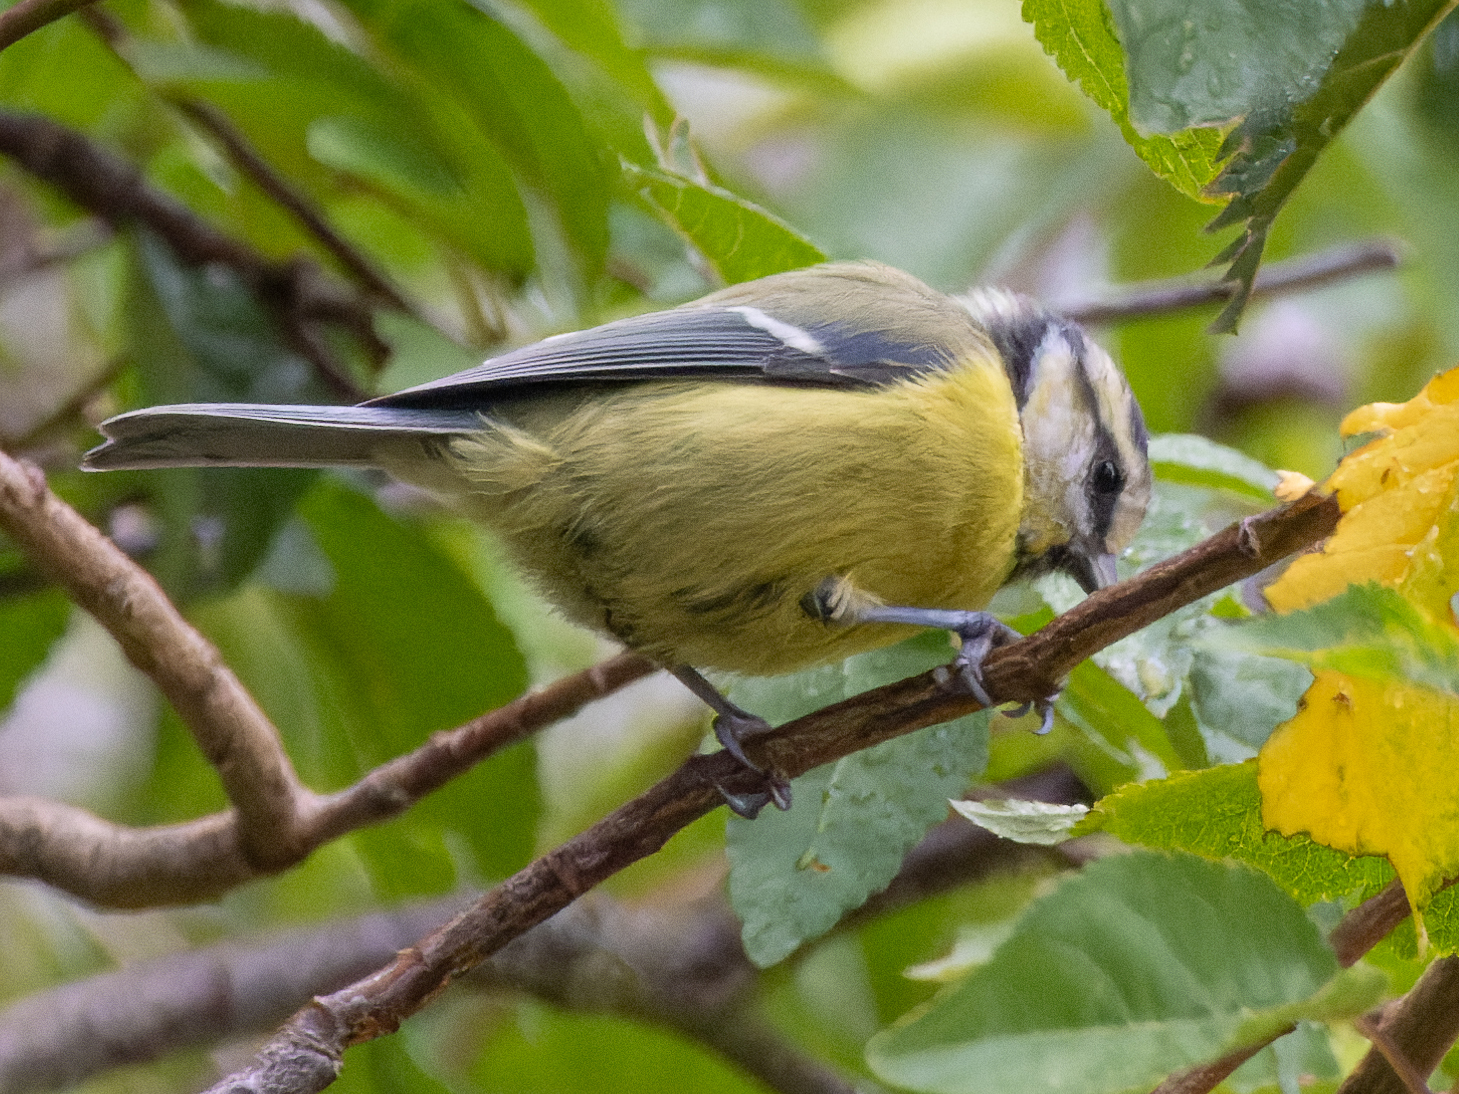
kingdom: Animalia
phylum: Chordata
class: Aves
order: Passeriformes
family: Paridae
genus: Cyanistes
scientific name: Cyanistes caeruleus
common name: Eurasian blue tit
